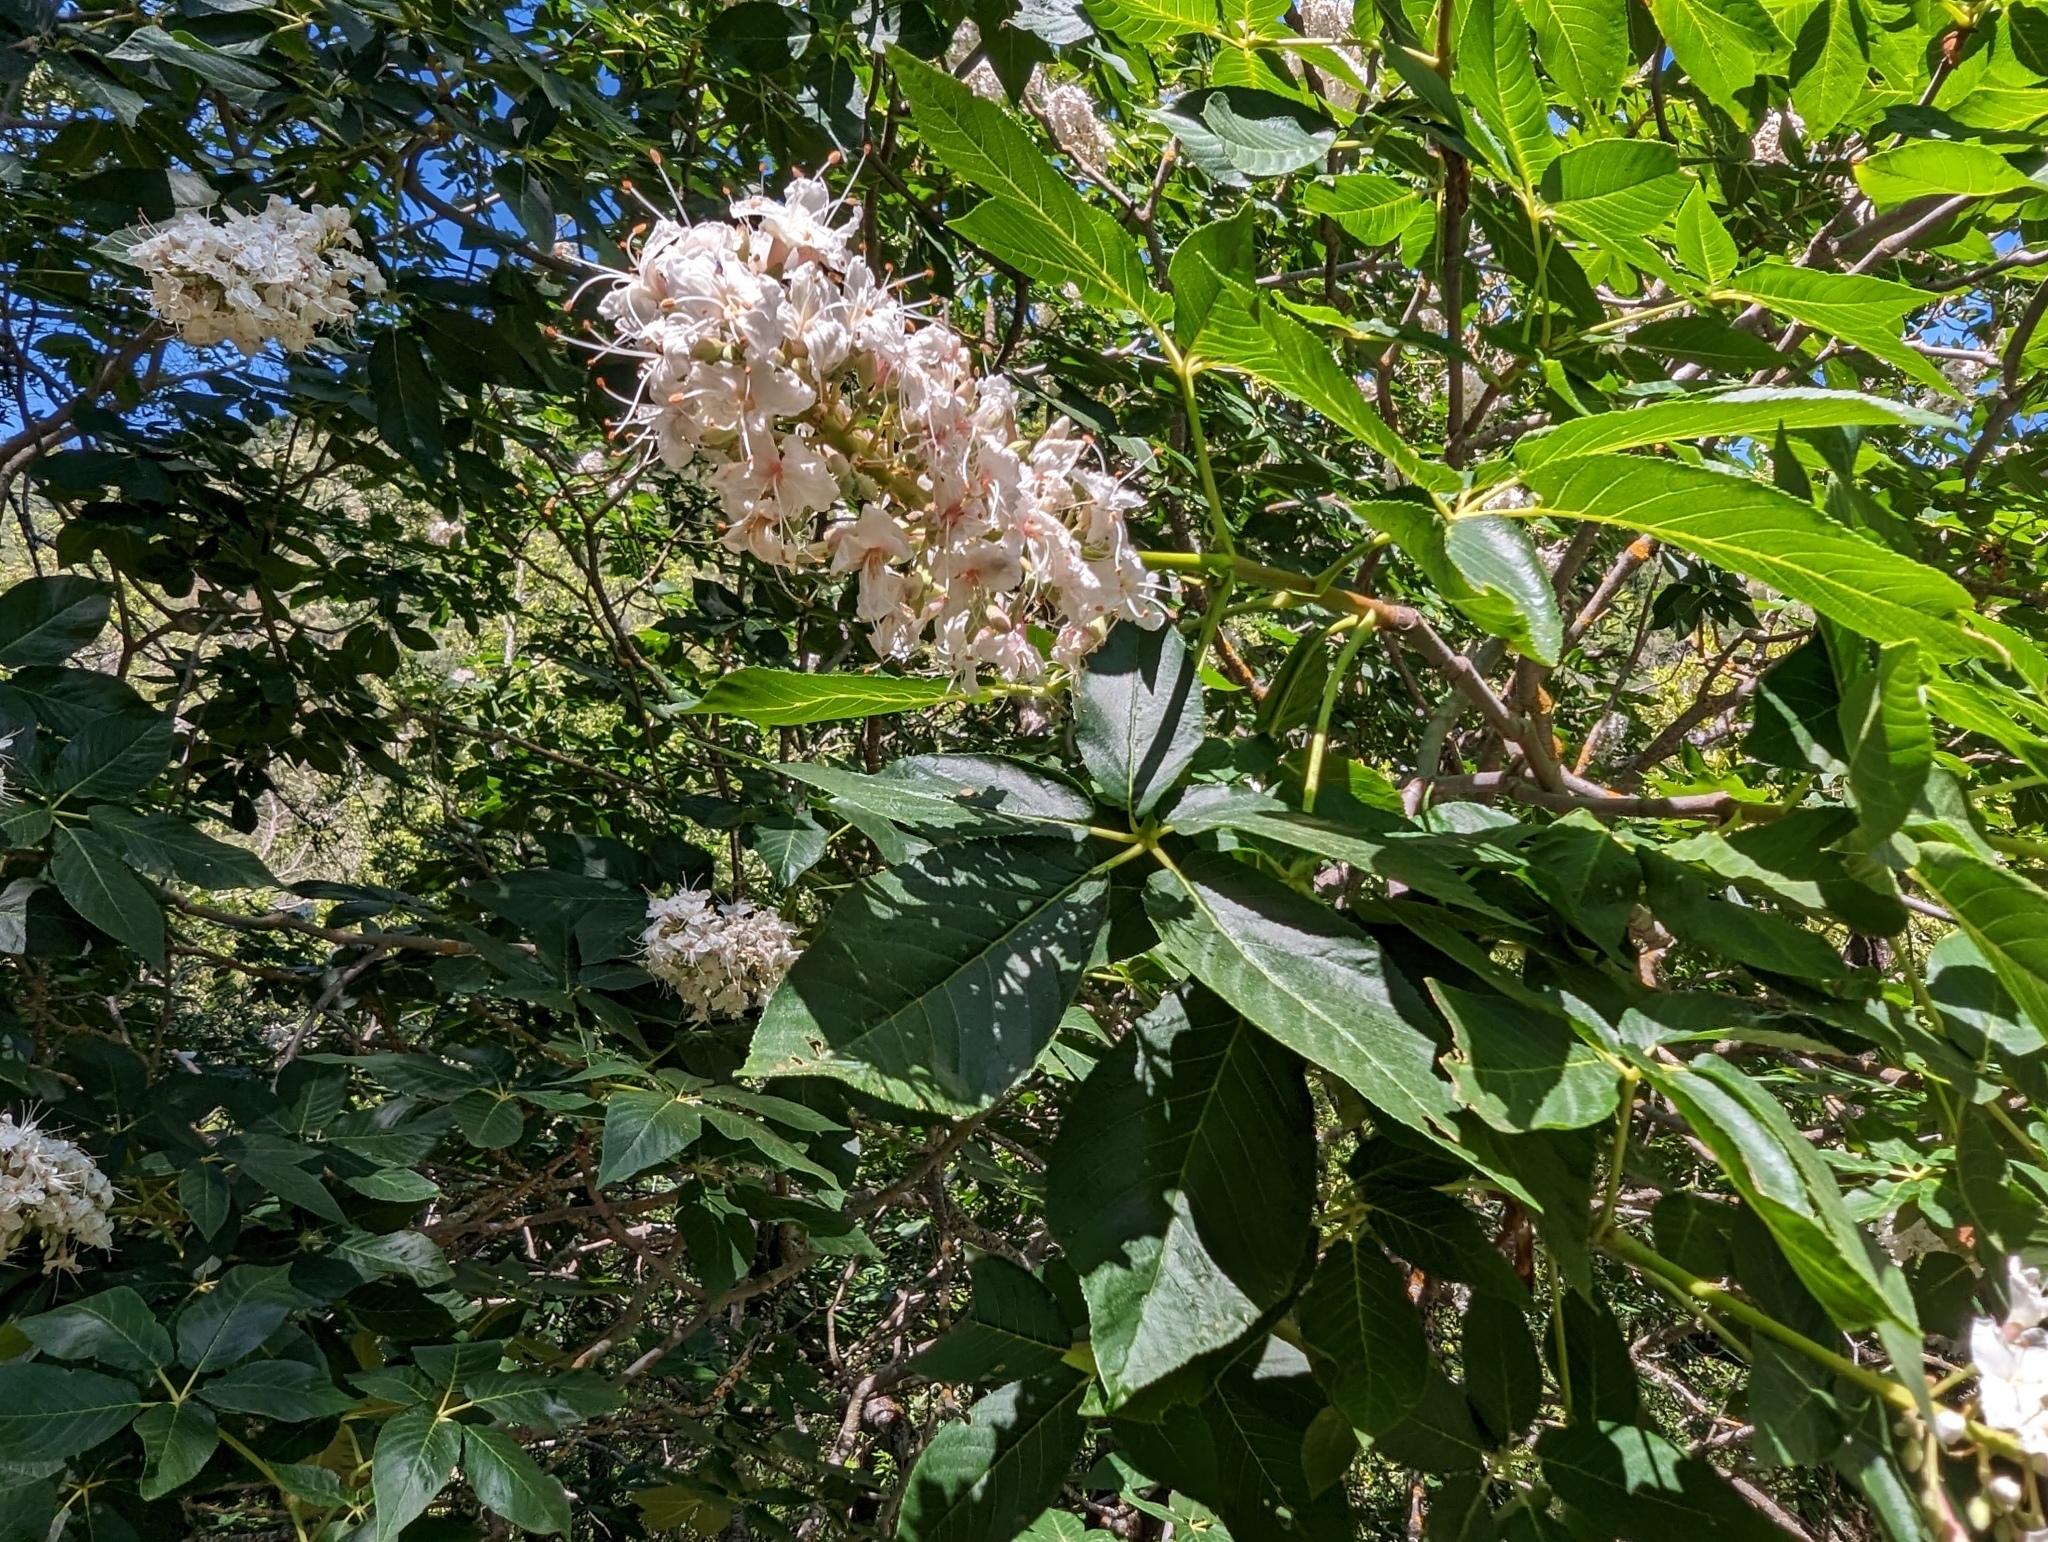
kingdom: Plantae
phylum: Tracheophyta
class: Magnoliopsida
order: Sapindales
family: Sapindaceae
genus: Aesculus
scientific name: Aesculus californica
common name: California buckeye
